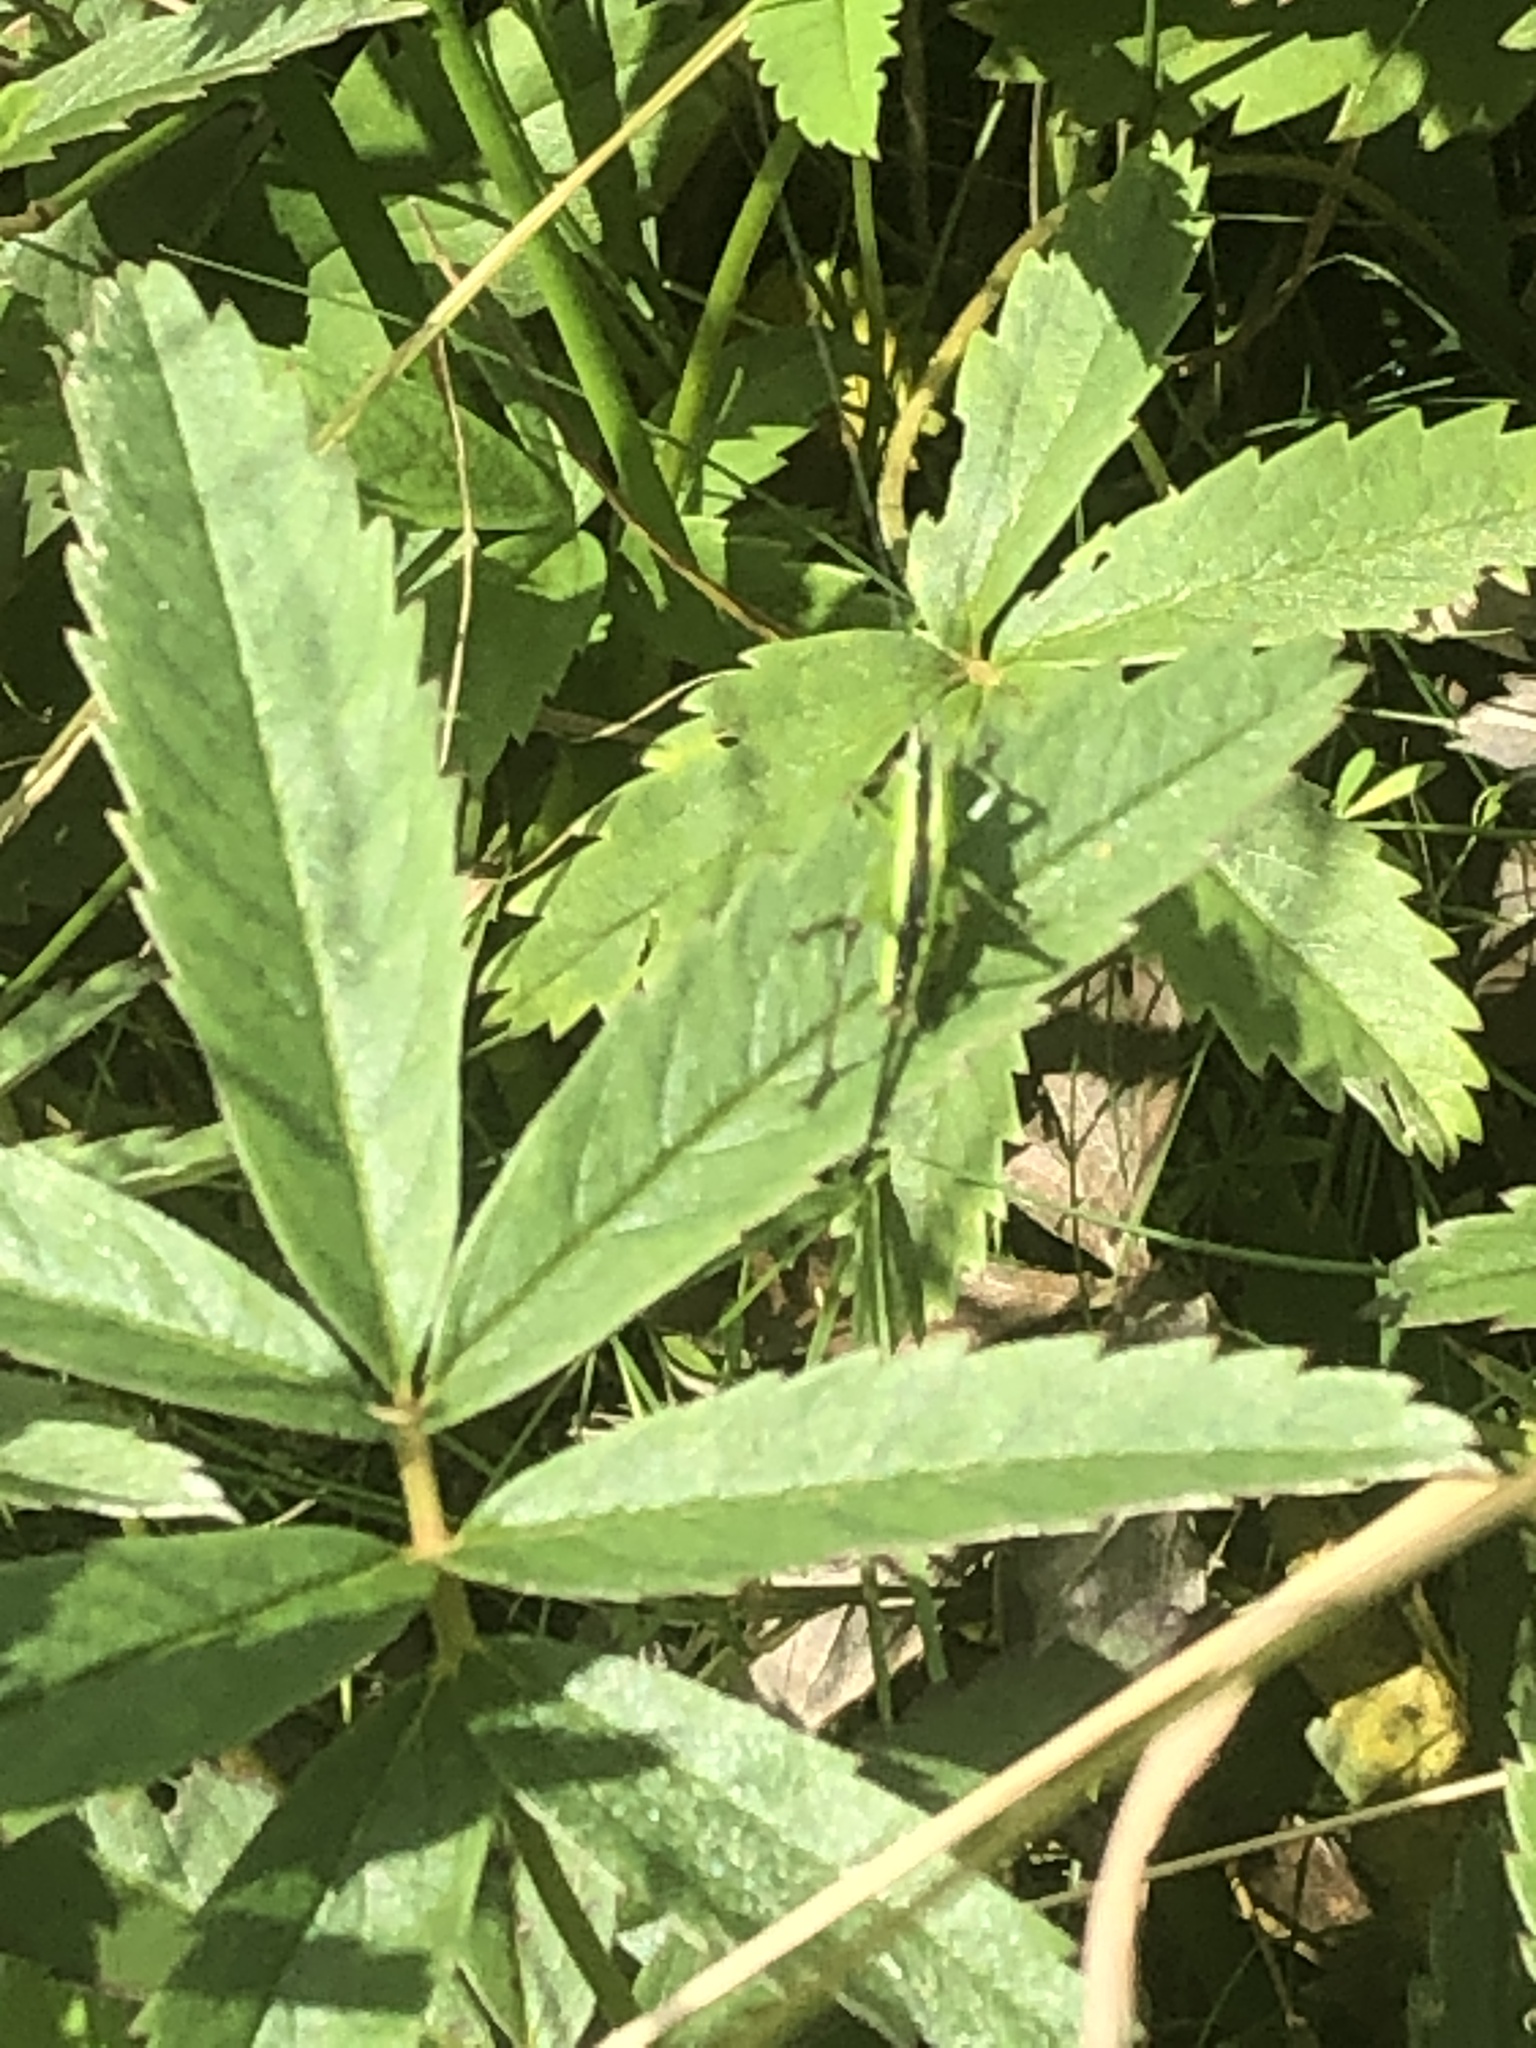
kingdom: Animalia
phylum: Arthropoda
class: Insecta
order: Orthoptera
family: Tettigoniidae
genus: Conocephalus
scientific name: Conocephalus fuscus
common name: Long-winged conehead
